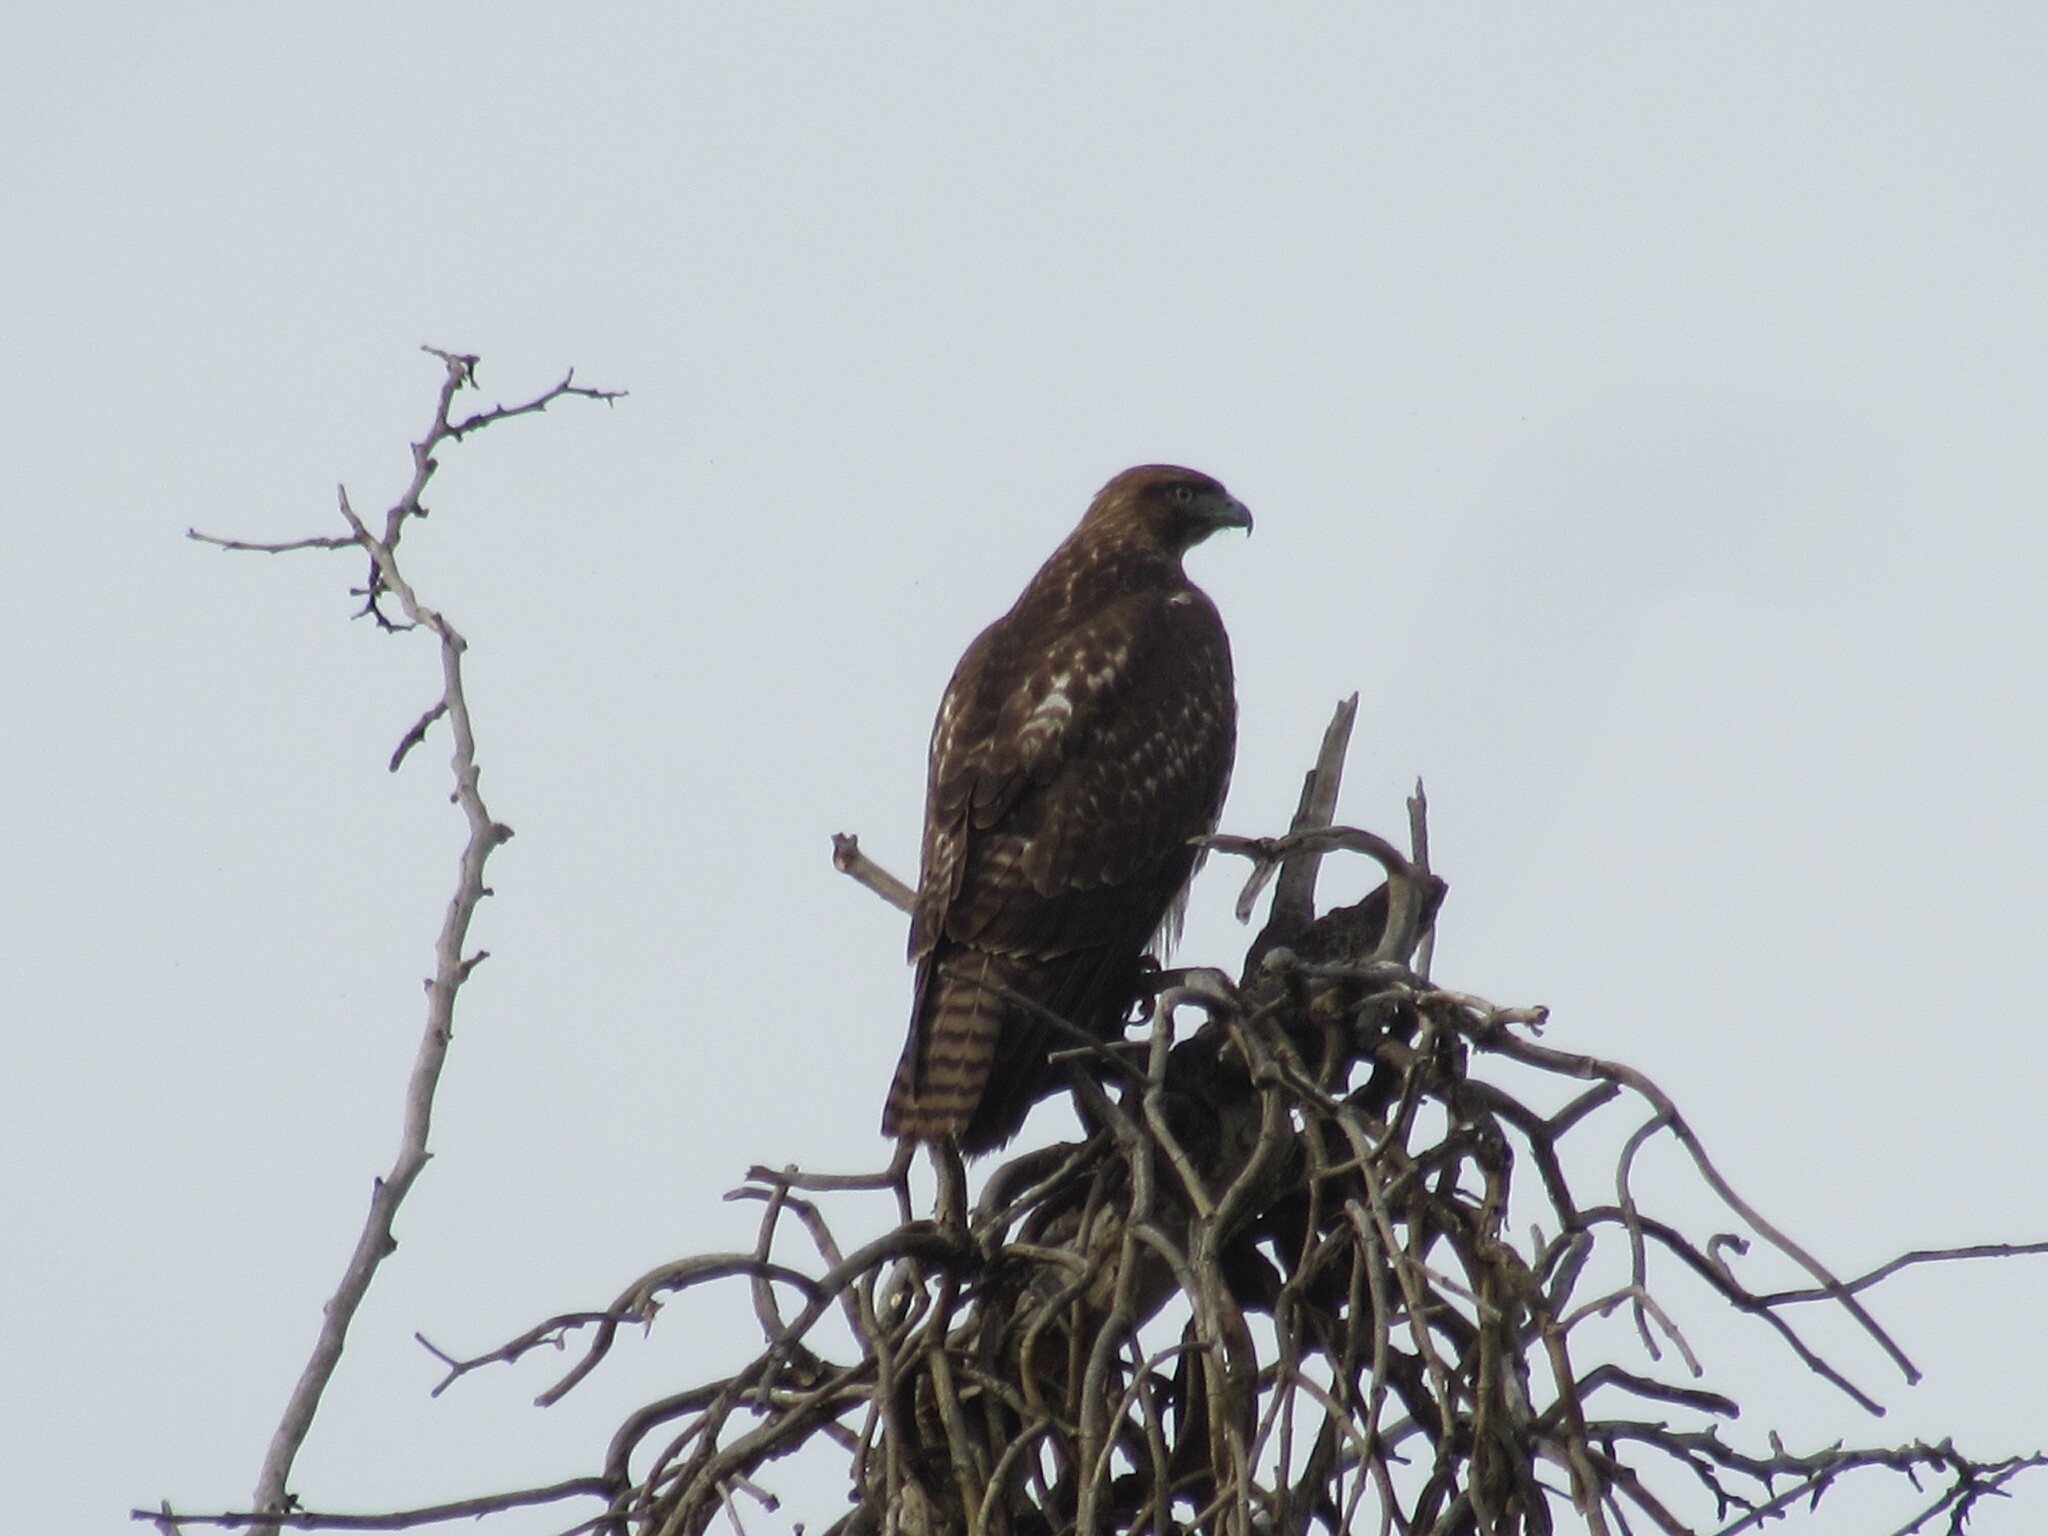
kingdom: Animalia
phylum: Chordata
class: Aves
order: Accipitriformes
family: Accipitridae
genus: Buteo
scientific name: Buteo jamaicensis
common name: Red-tailed hawk
